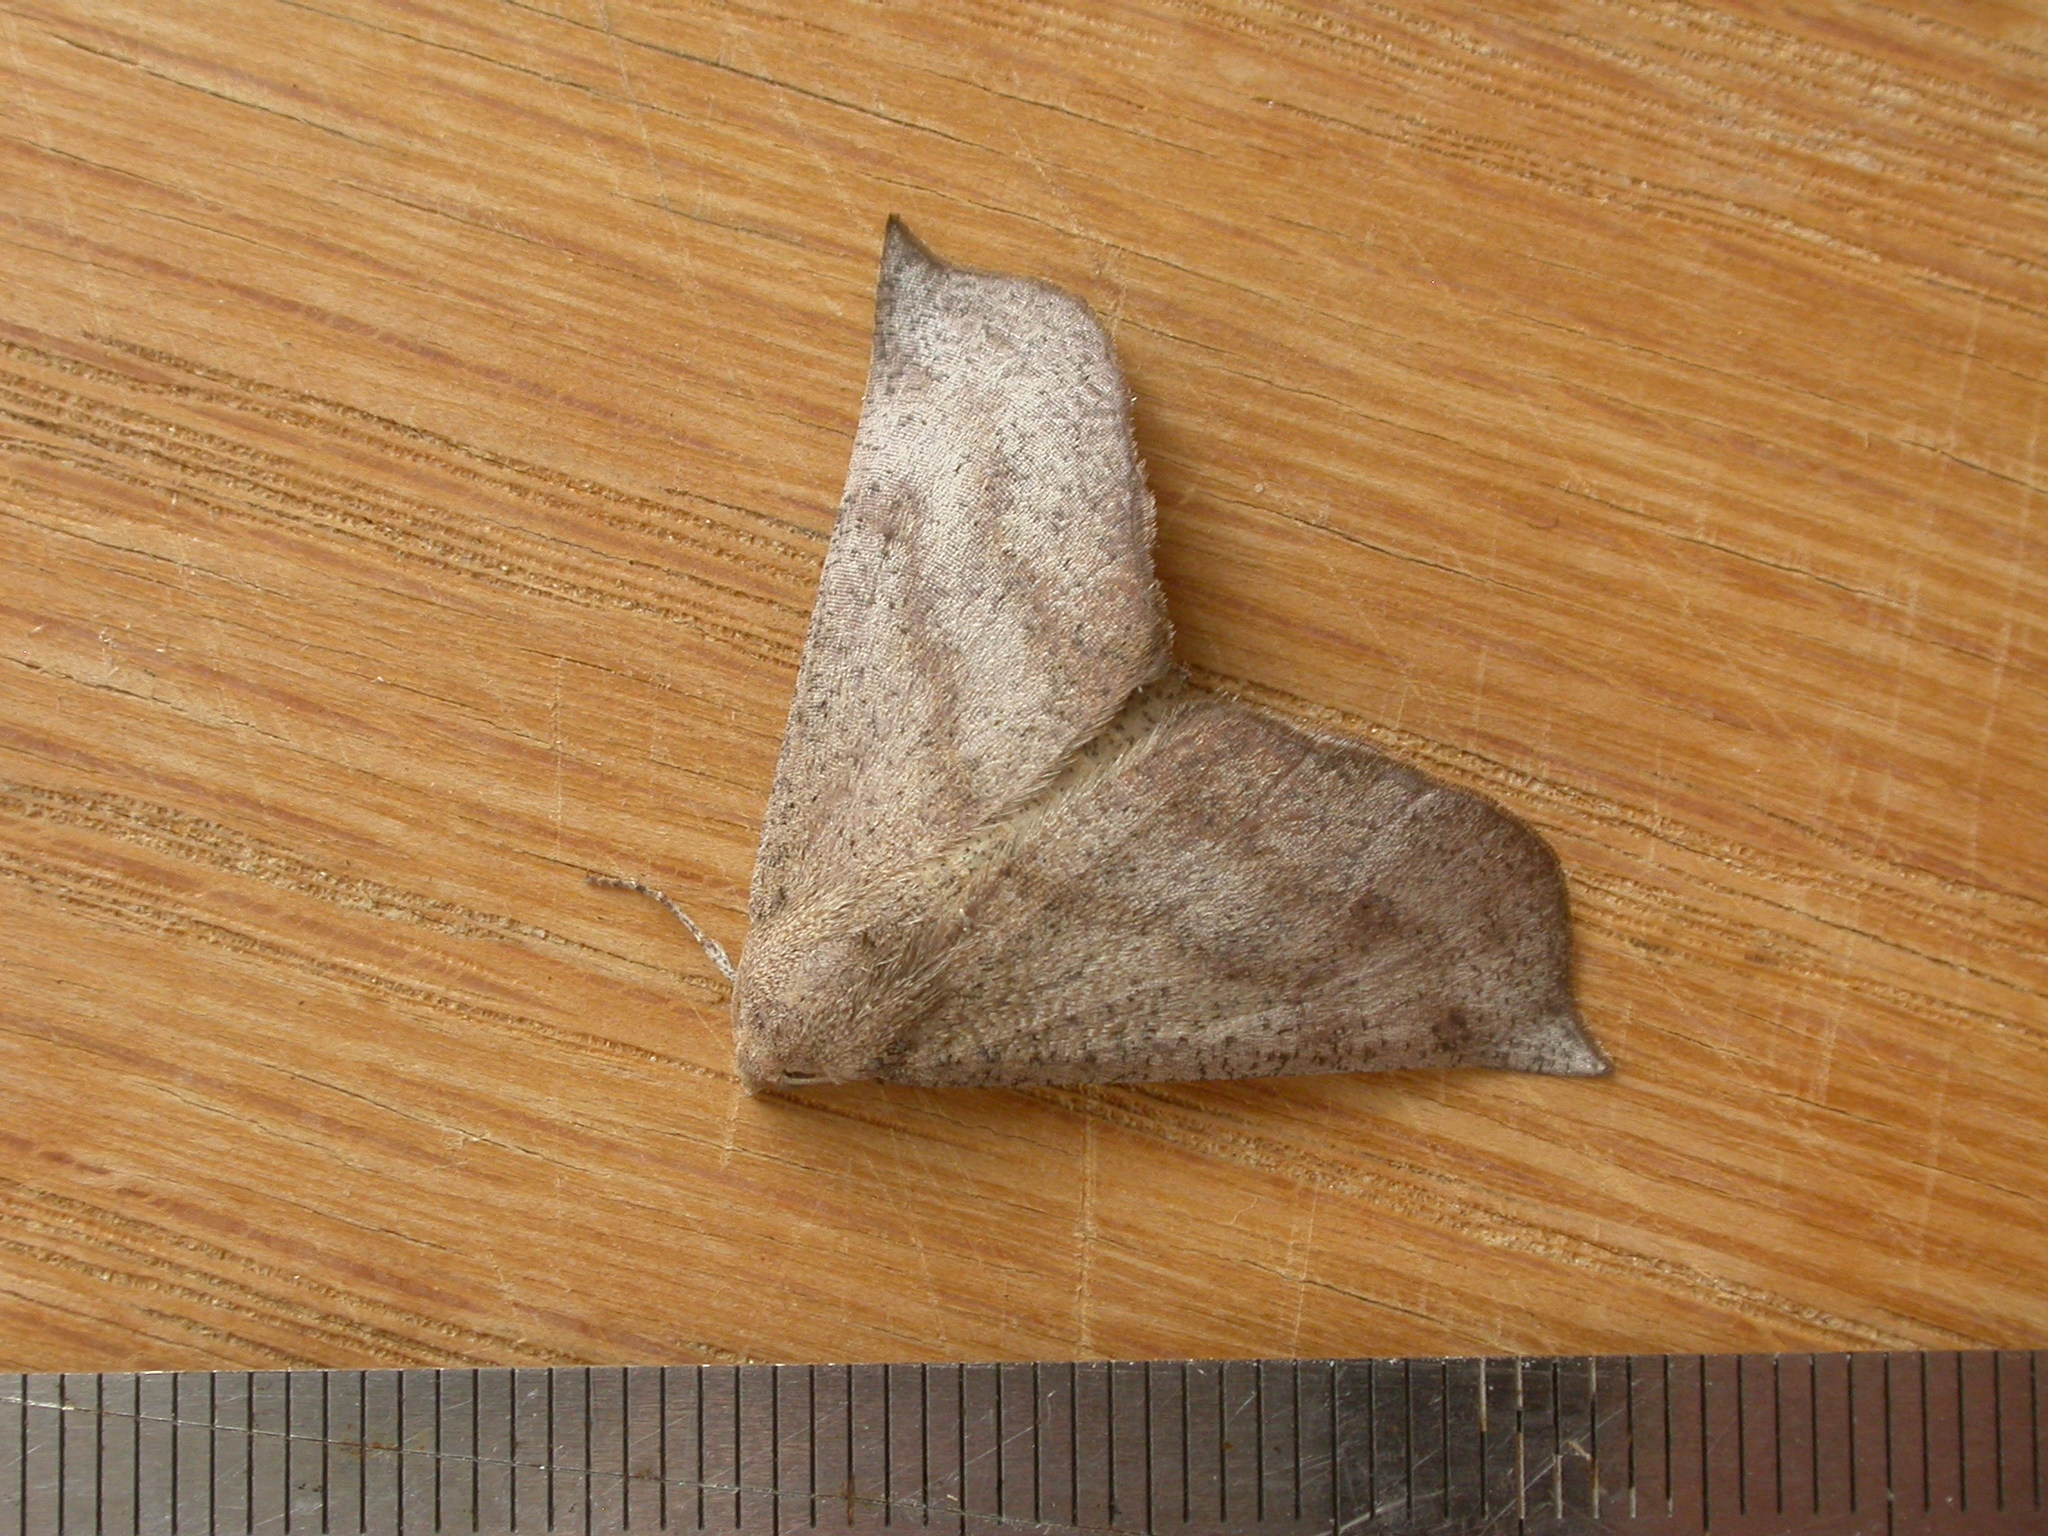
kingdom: Animalia
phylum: Arthropoda
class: Insecta
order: Lepidoptera
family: Geometridae
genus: Mnesampela
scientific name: Mnesampela lenaea
